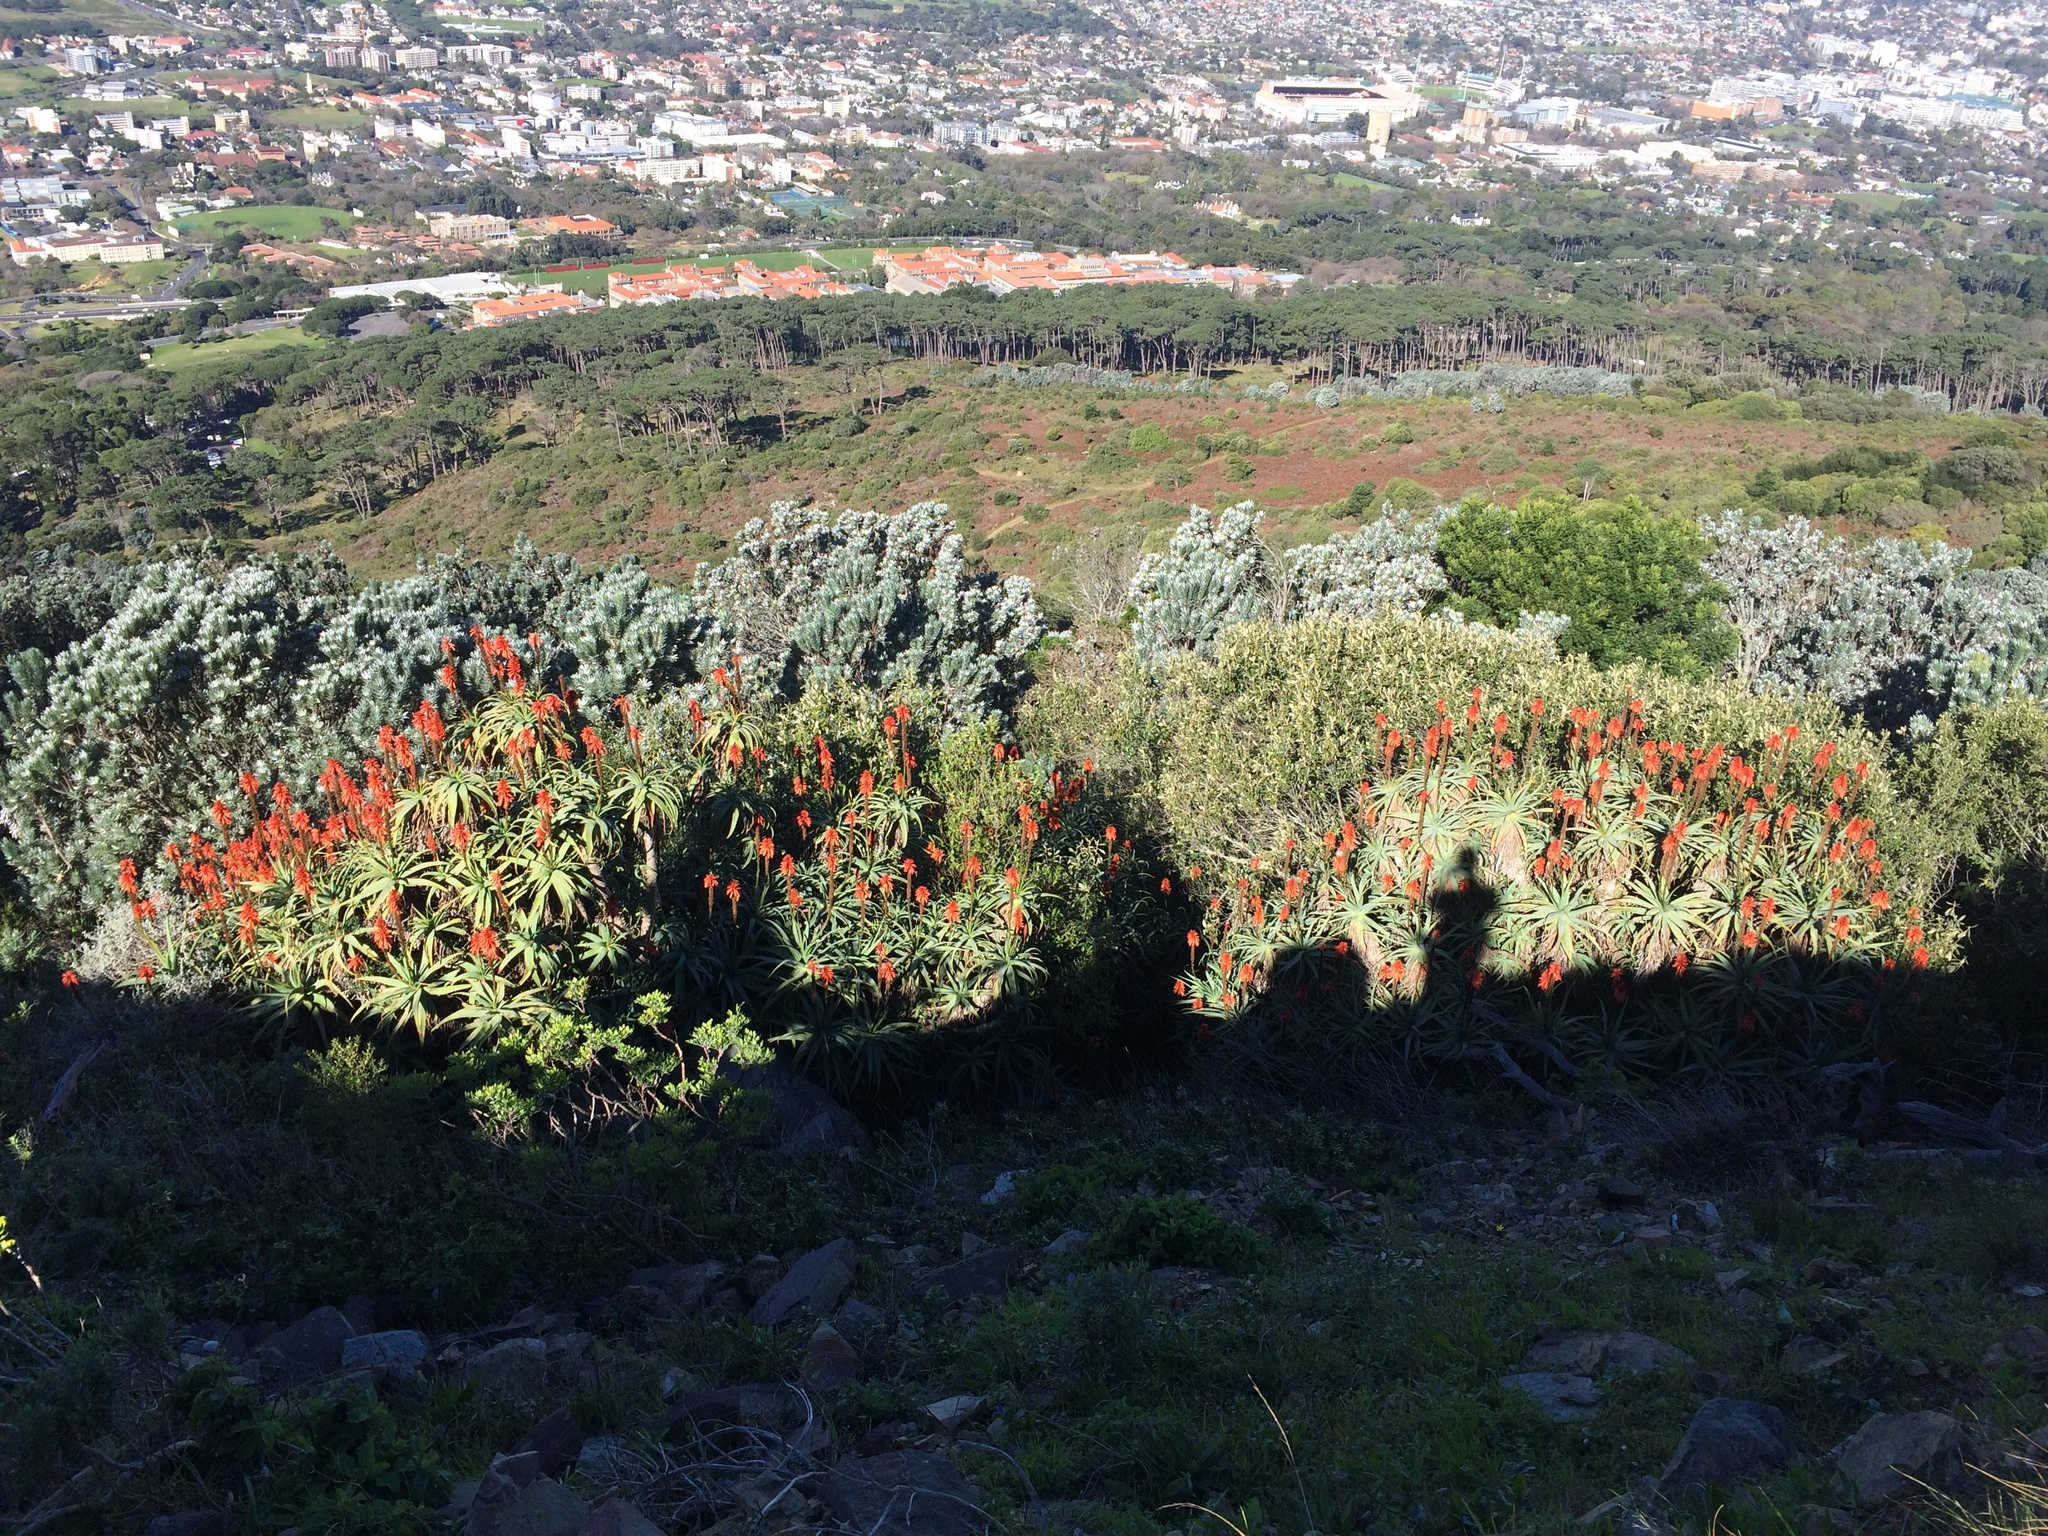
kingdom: Plantae
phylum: Tracheophyta
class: Liliopsida
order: Asparagales
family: Asphodelaceae
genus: Aloe
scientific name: Aloe arborescens
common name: Candelabra aloe
